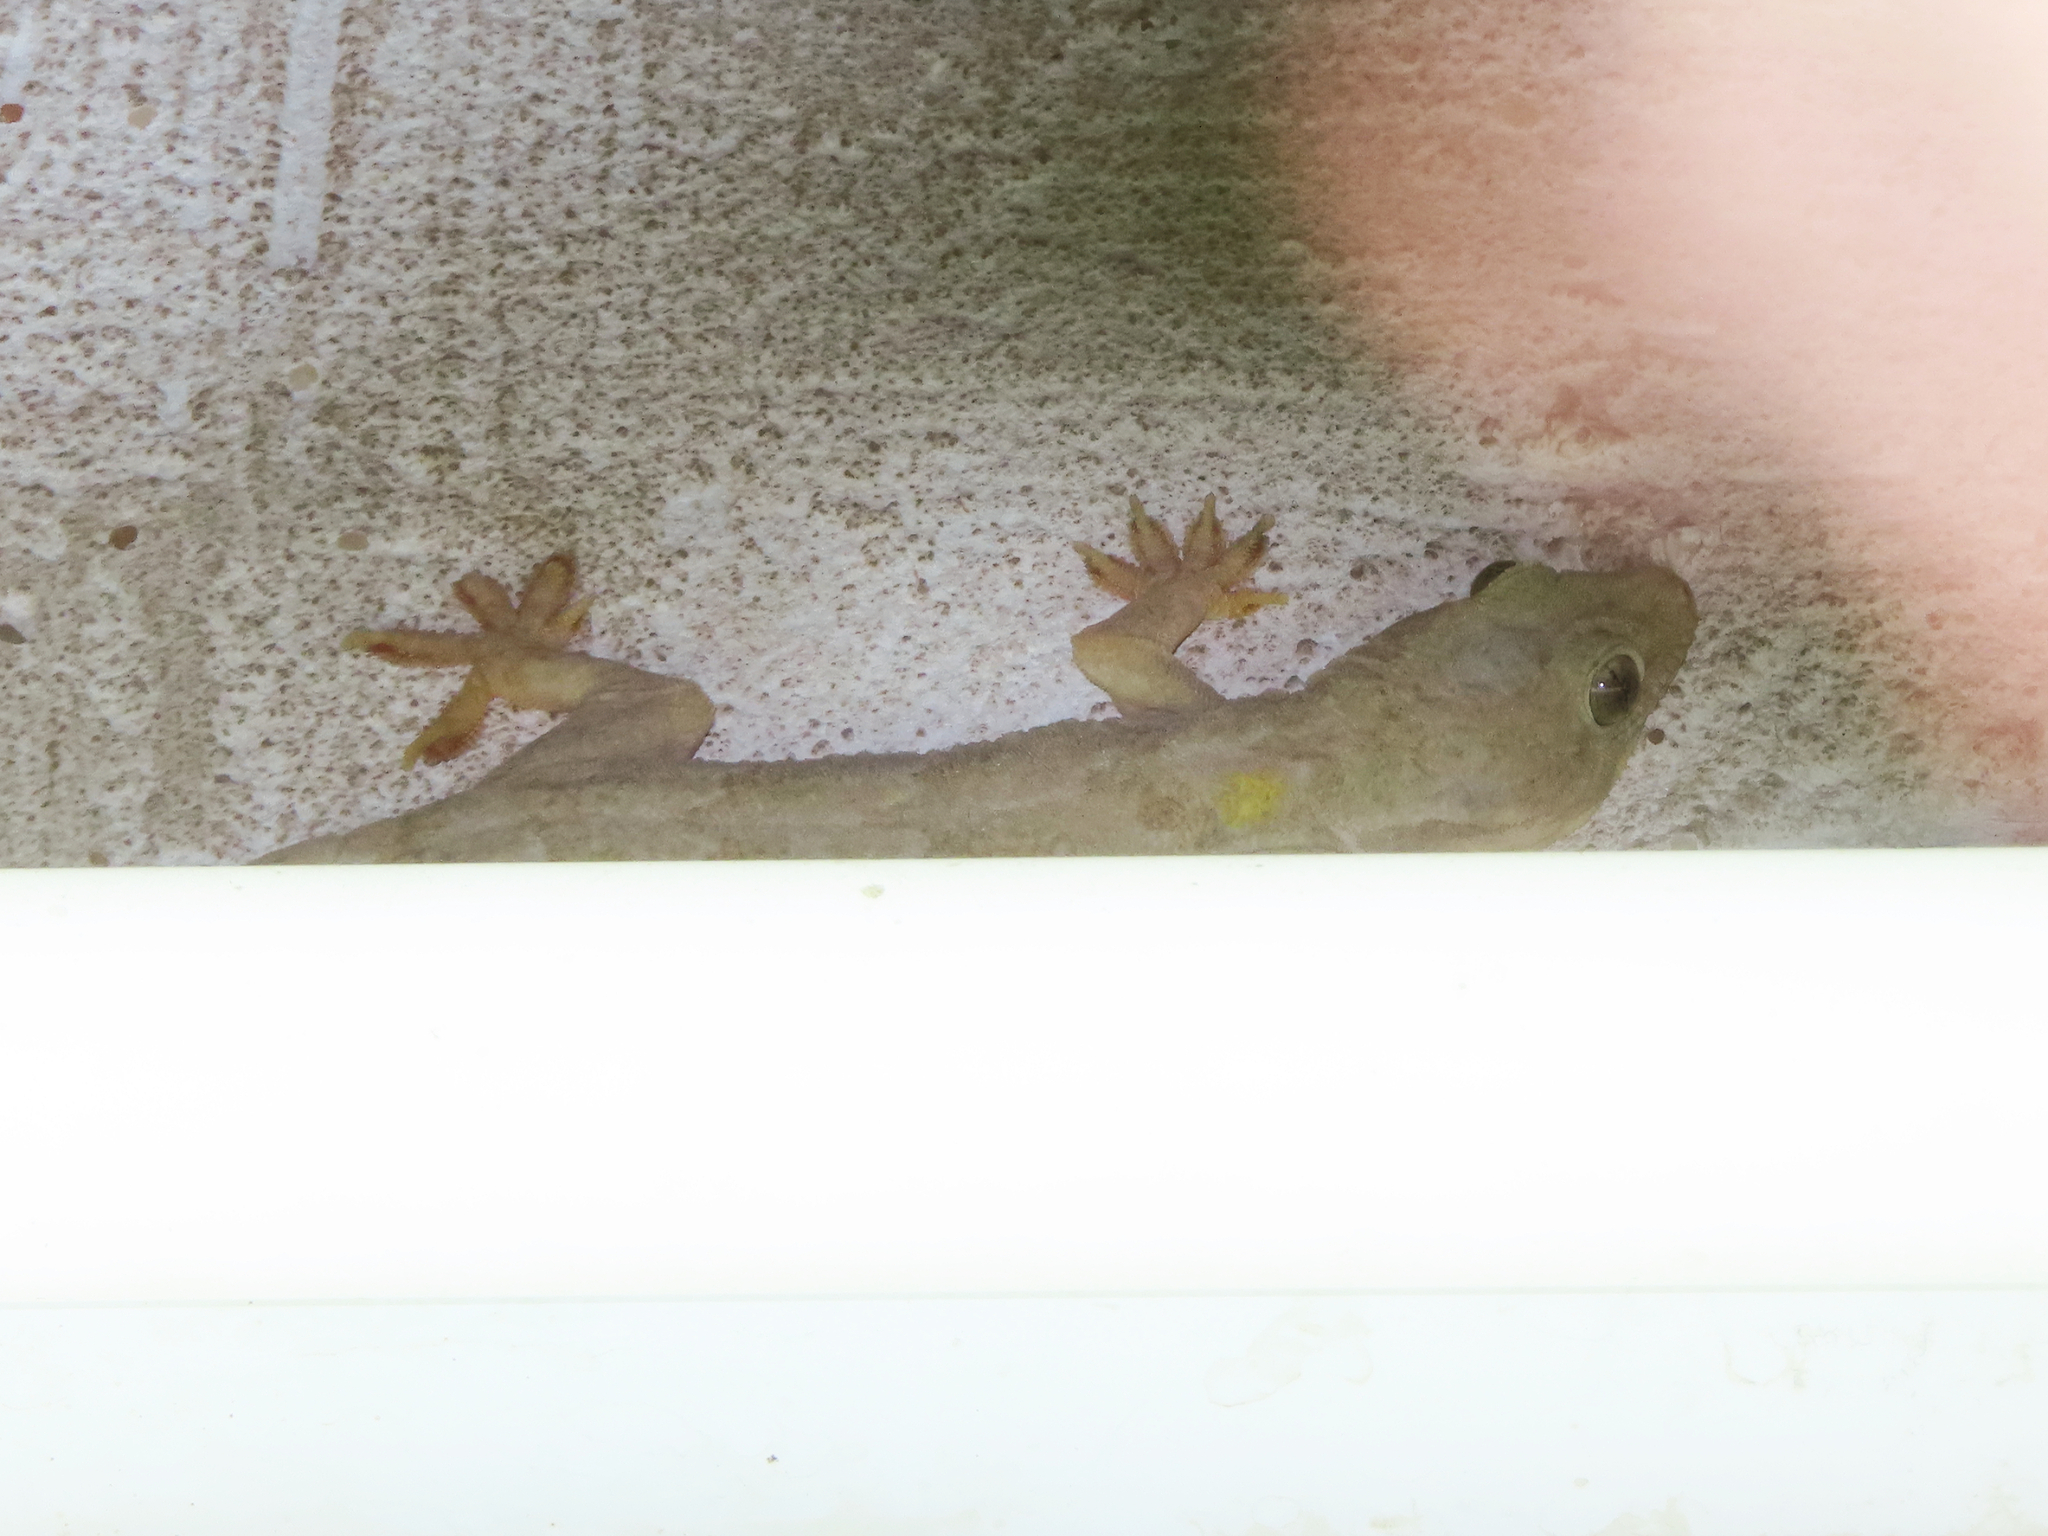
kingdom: Animalia
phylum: Chordata
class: Squamata
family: Gekkonidae
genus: Hemidactylus
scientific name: Hemidactylus flaviviridis
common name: Northern house gecko
